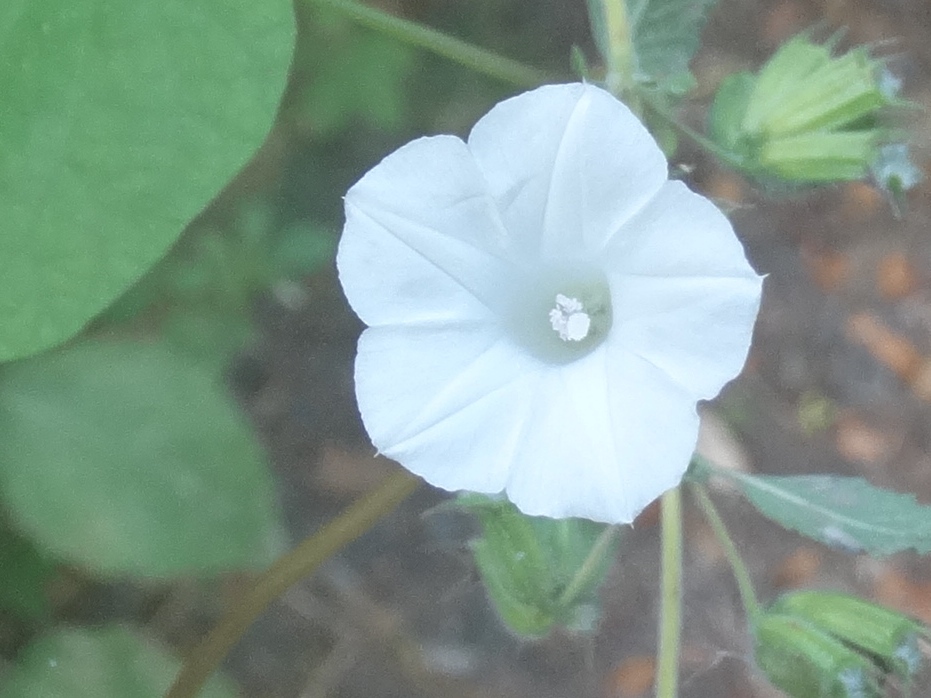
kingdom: Plantae
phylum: Tracheophyta
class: Magnoliopsida
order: Solanales
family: Convolvulaceae
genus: Ipomoea
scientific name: Ipomoea triloba
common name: Little-bell
